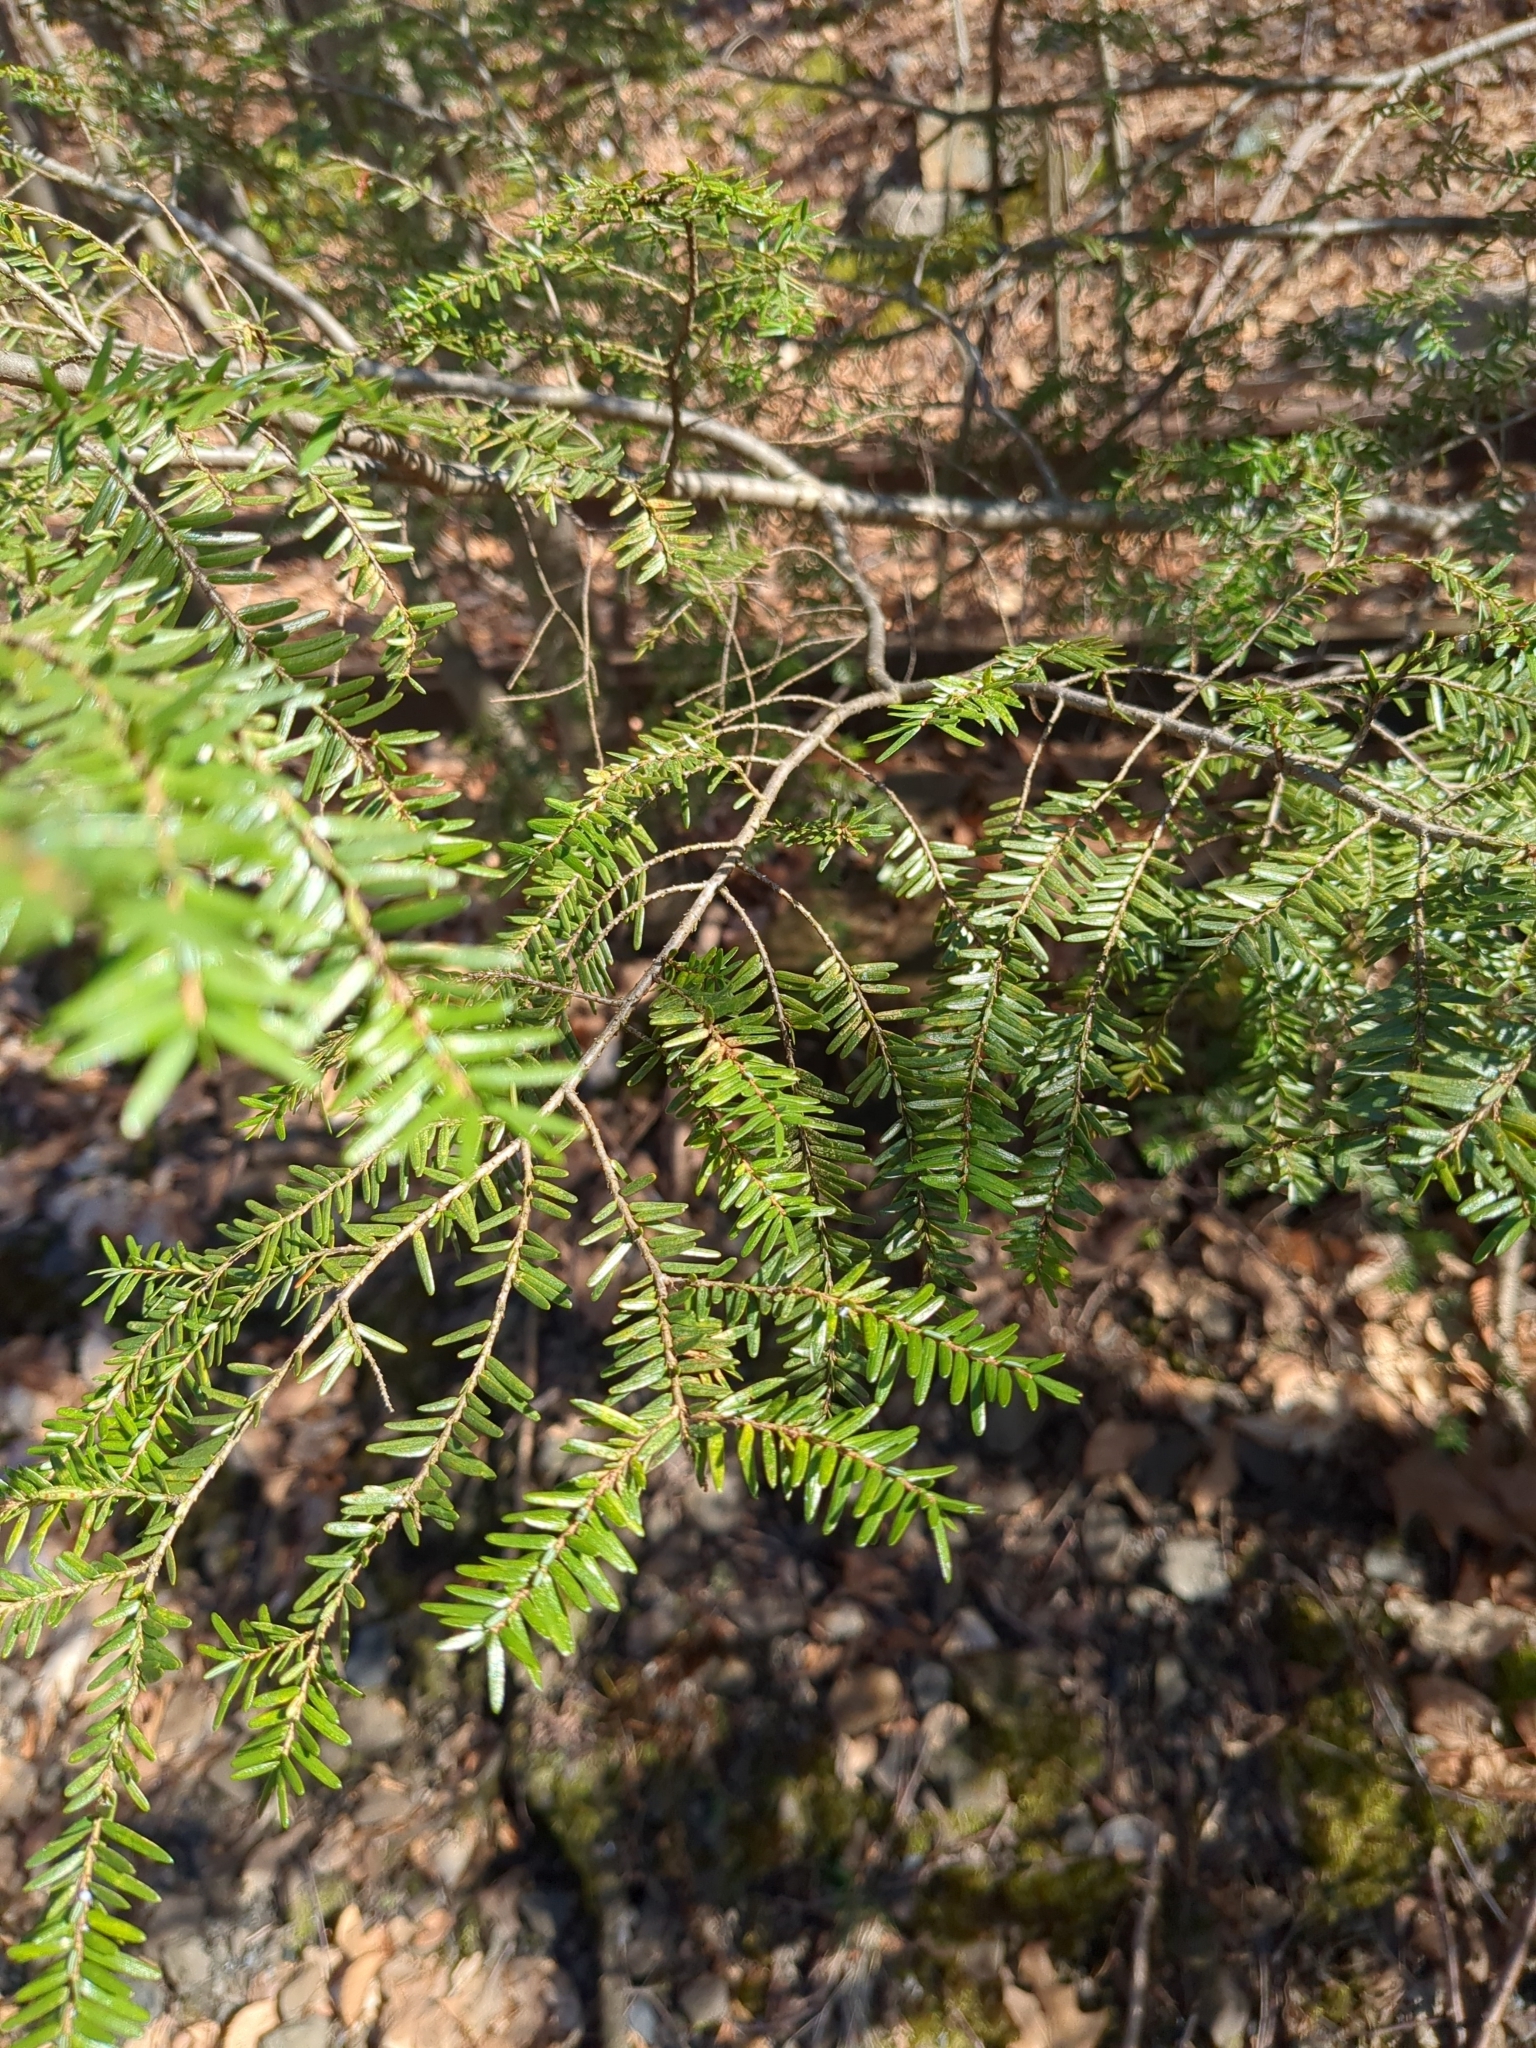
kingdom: Plantae
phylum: Tracheophyta
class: Pinopsida
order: Pinales
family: Pinaceae
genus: Tsuga
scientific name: Tsuga canadensis
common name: Eastern hemlock
